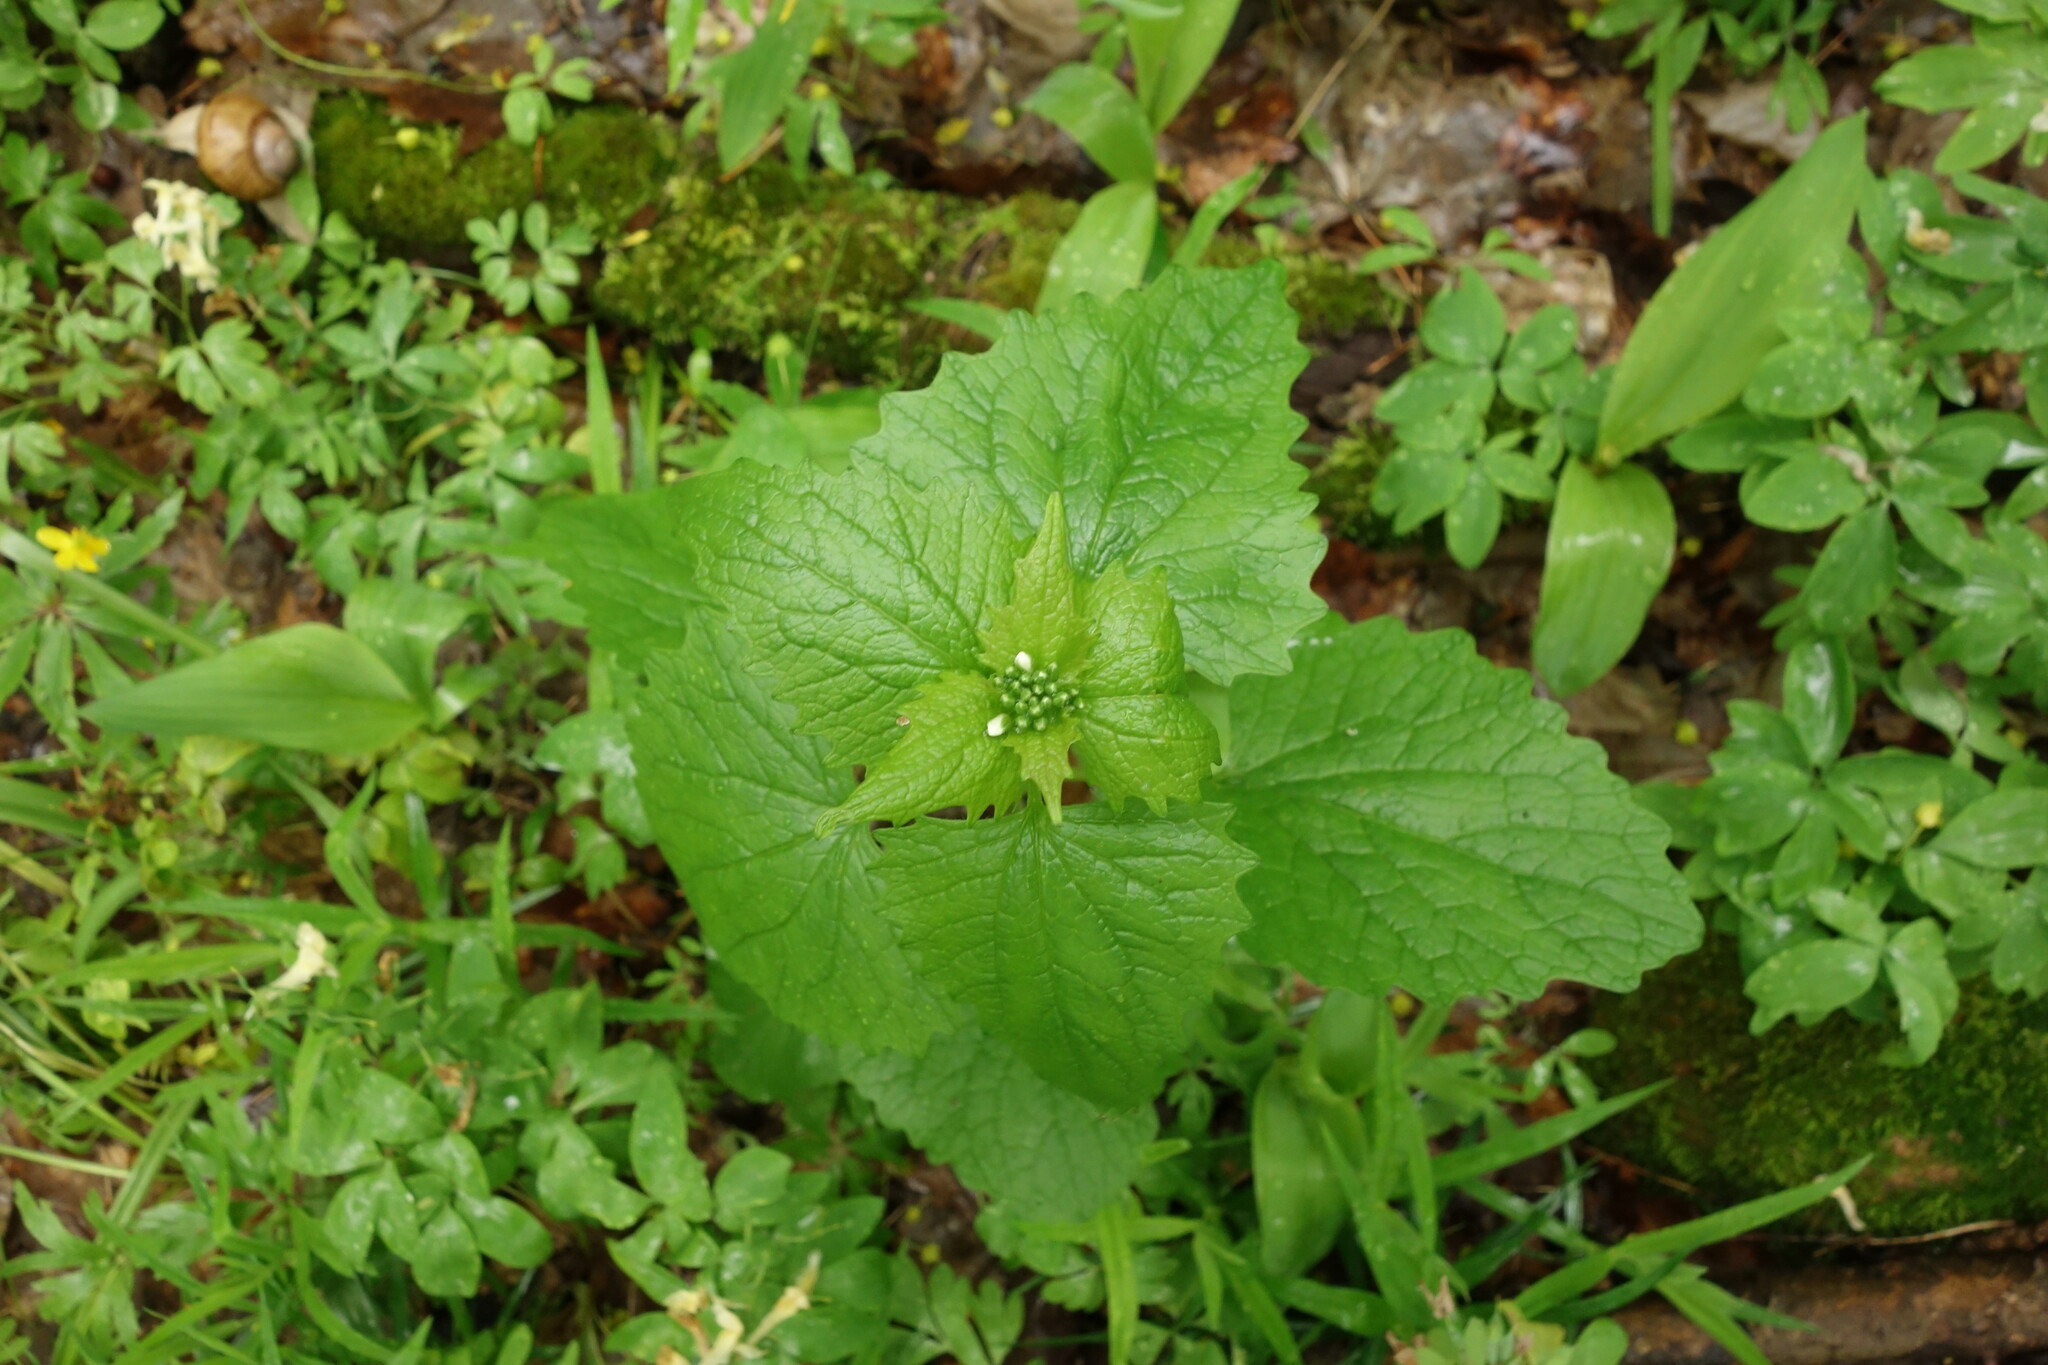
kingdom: Plantae
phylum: Tracheophyta
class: Magnoliopsida
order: Brassicales
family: Brassicaceae
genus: Alliaria
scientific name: Alliaria petiolata
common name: Garlic mustard
